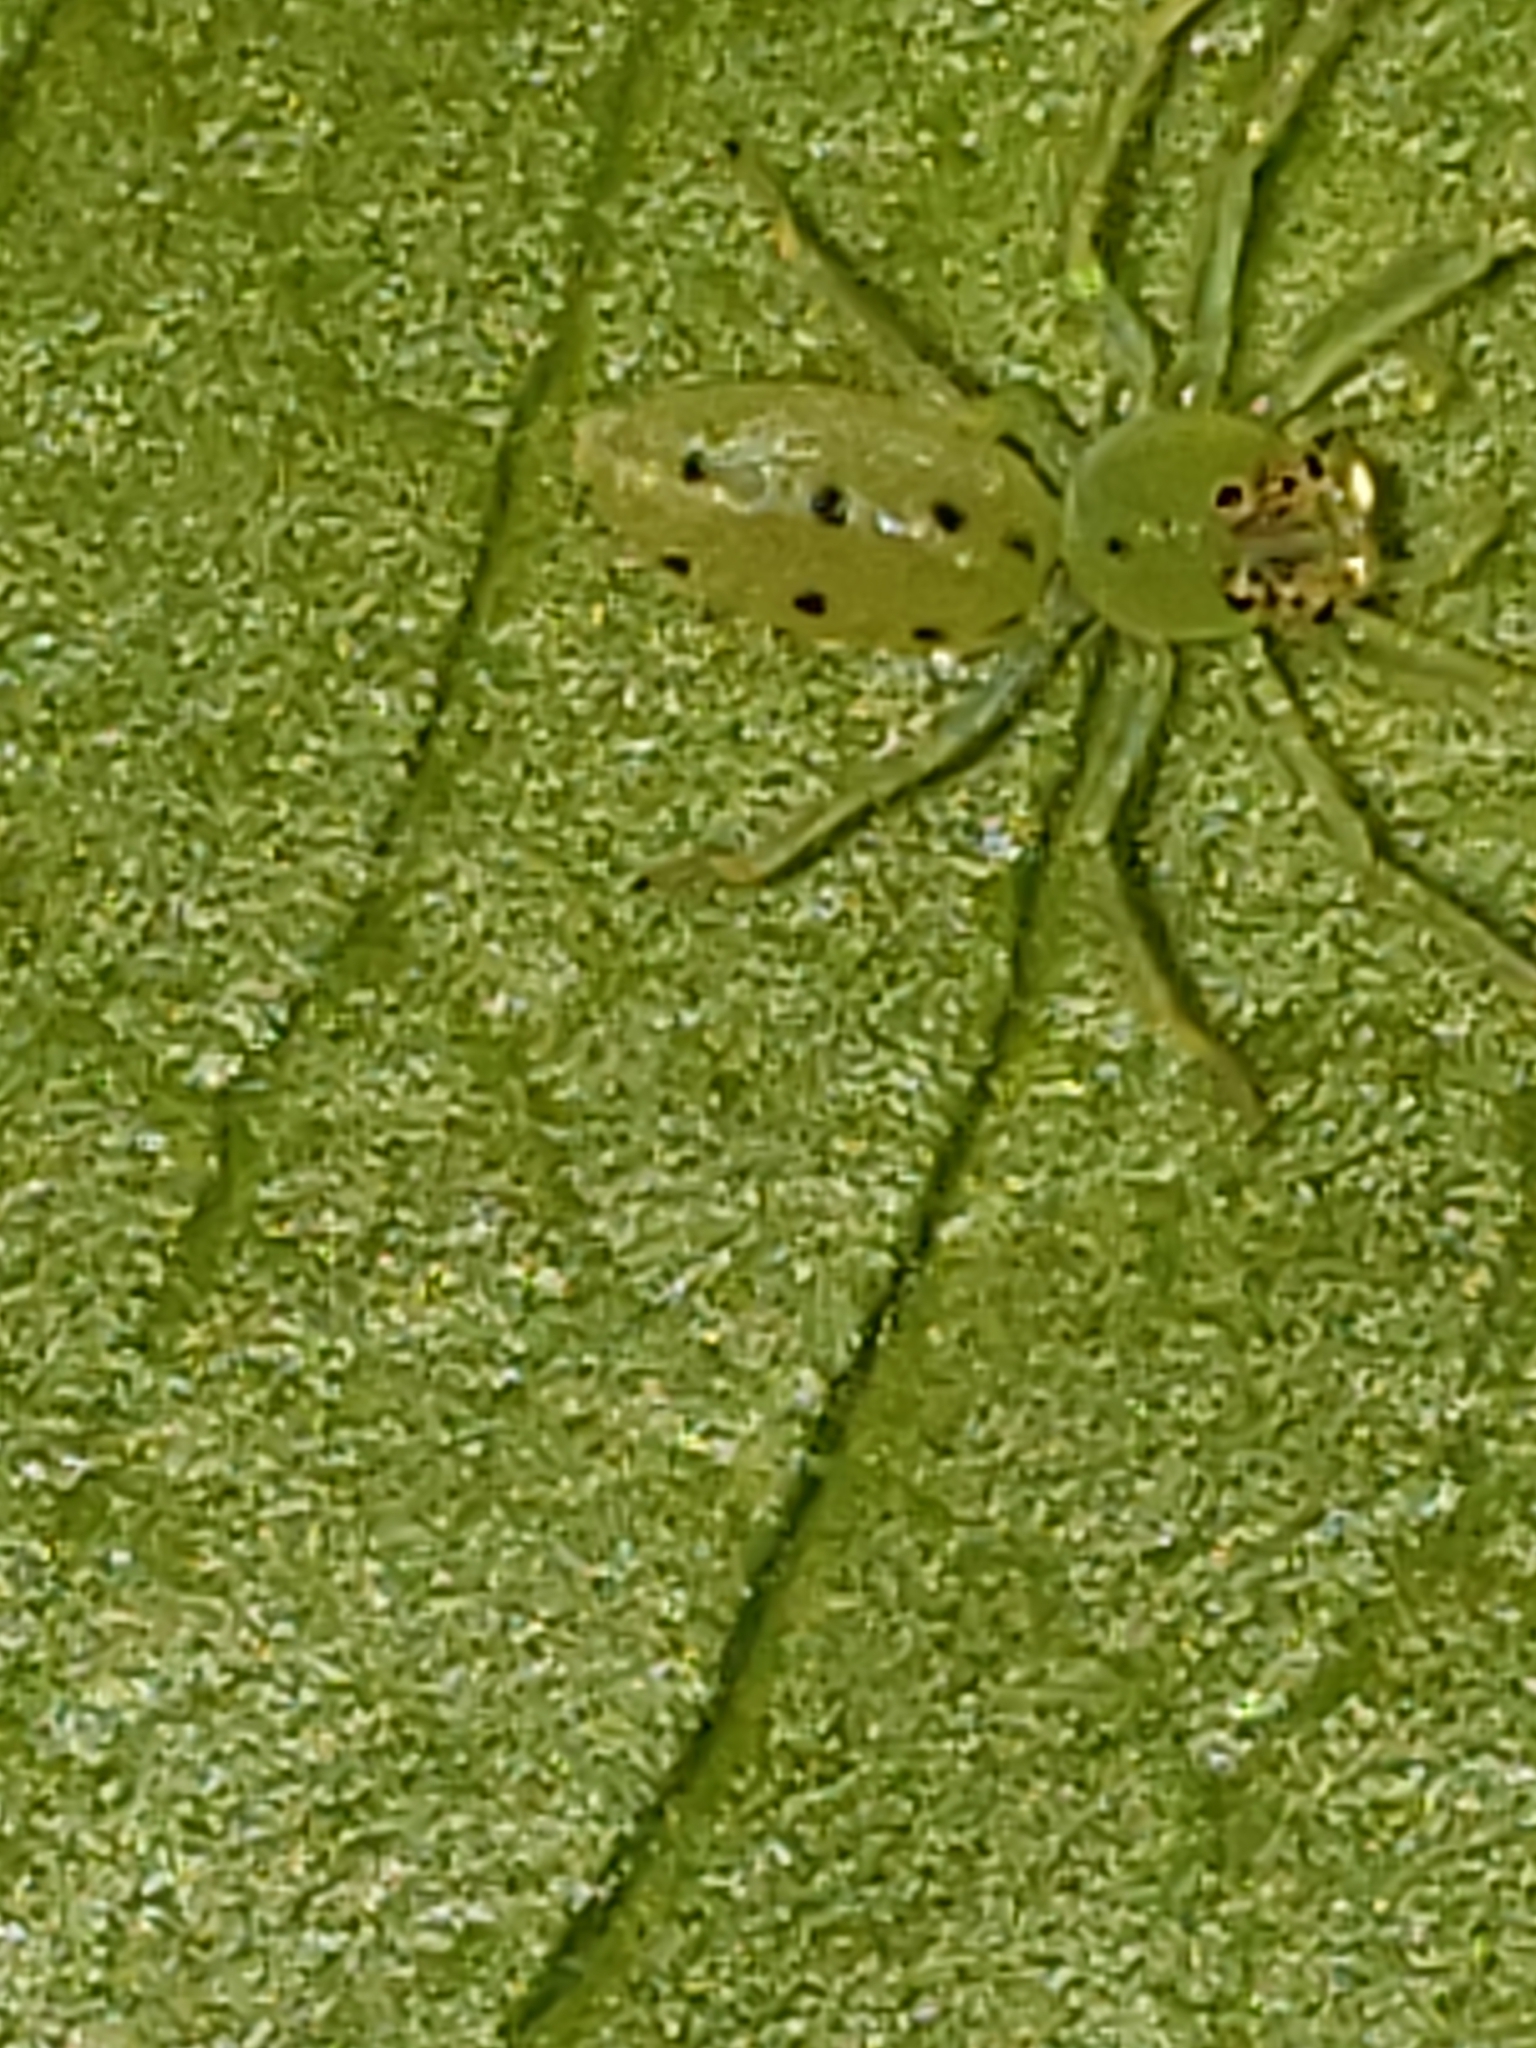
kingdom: Animalia
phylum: Arthropoda
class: Arachnida
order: Araneae
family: Salticidae
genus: Lyssomanes
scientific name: Lyssomanes viridis
